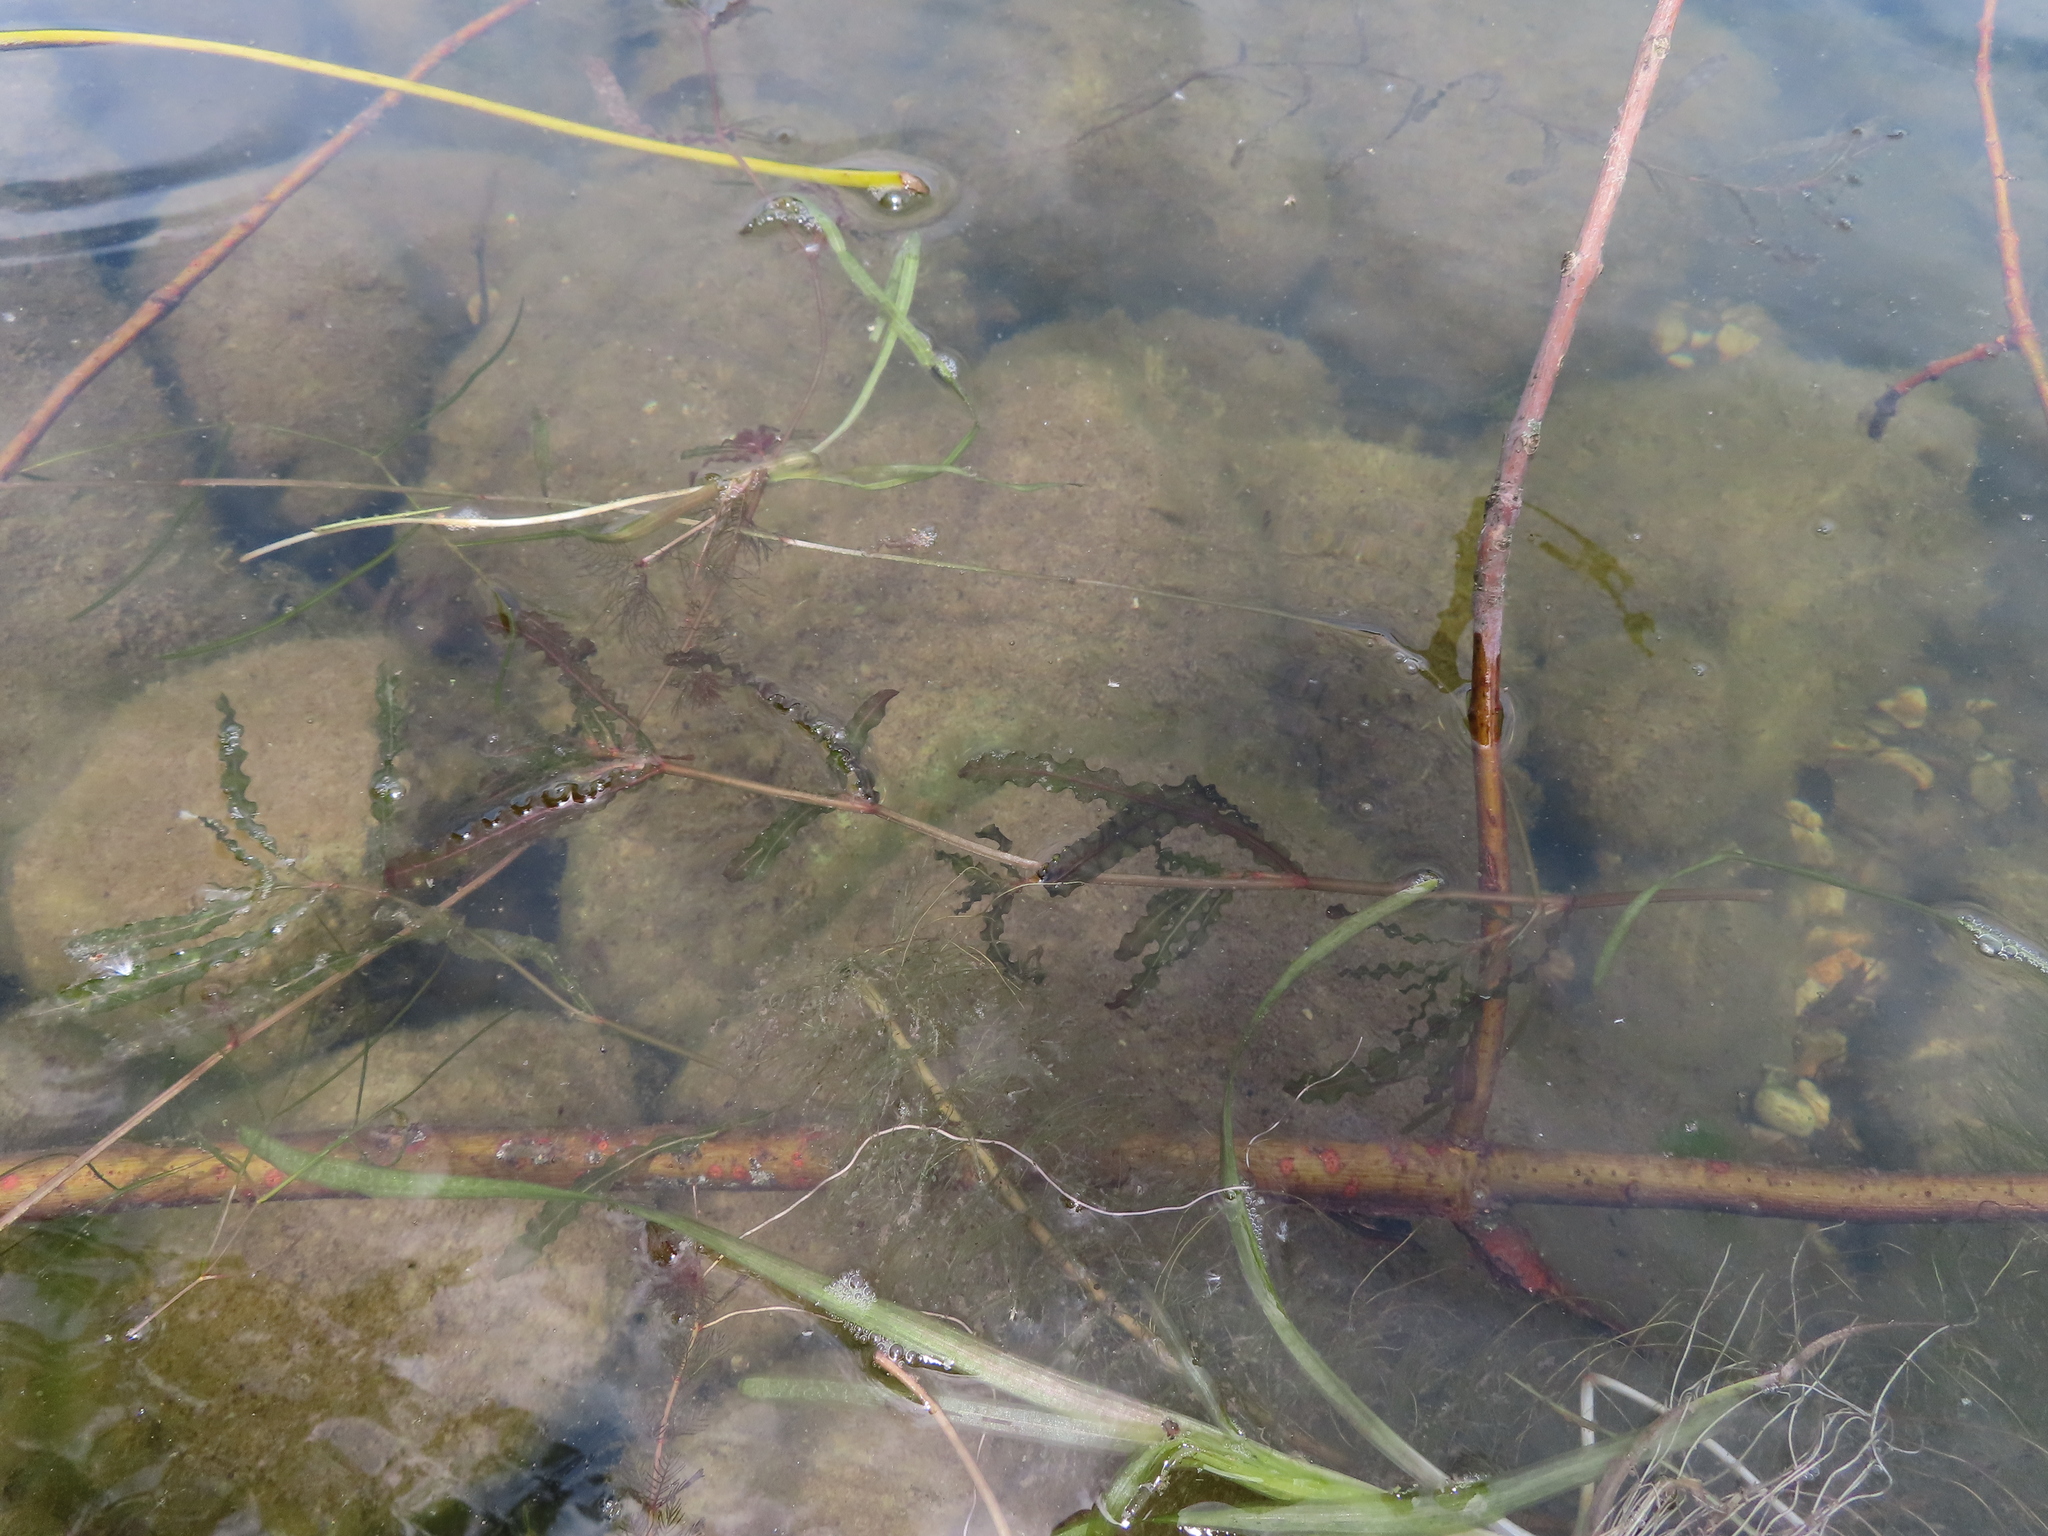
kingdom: Plantae
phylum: Tracheophyta
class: Liliopsida
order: Alismatales
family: Potamogetonaceae
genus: Potamogeton
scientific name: Potamogeton crispus
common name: Curled pondweed
